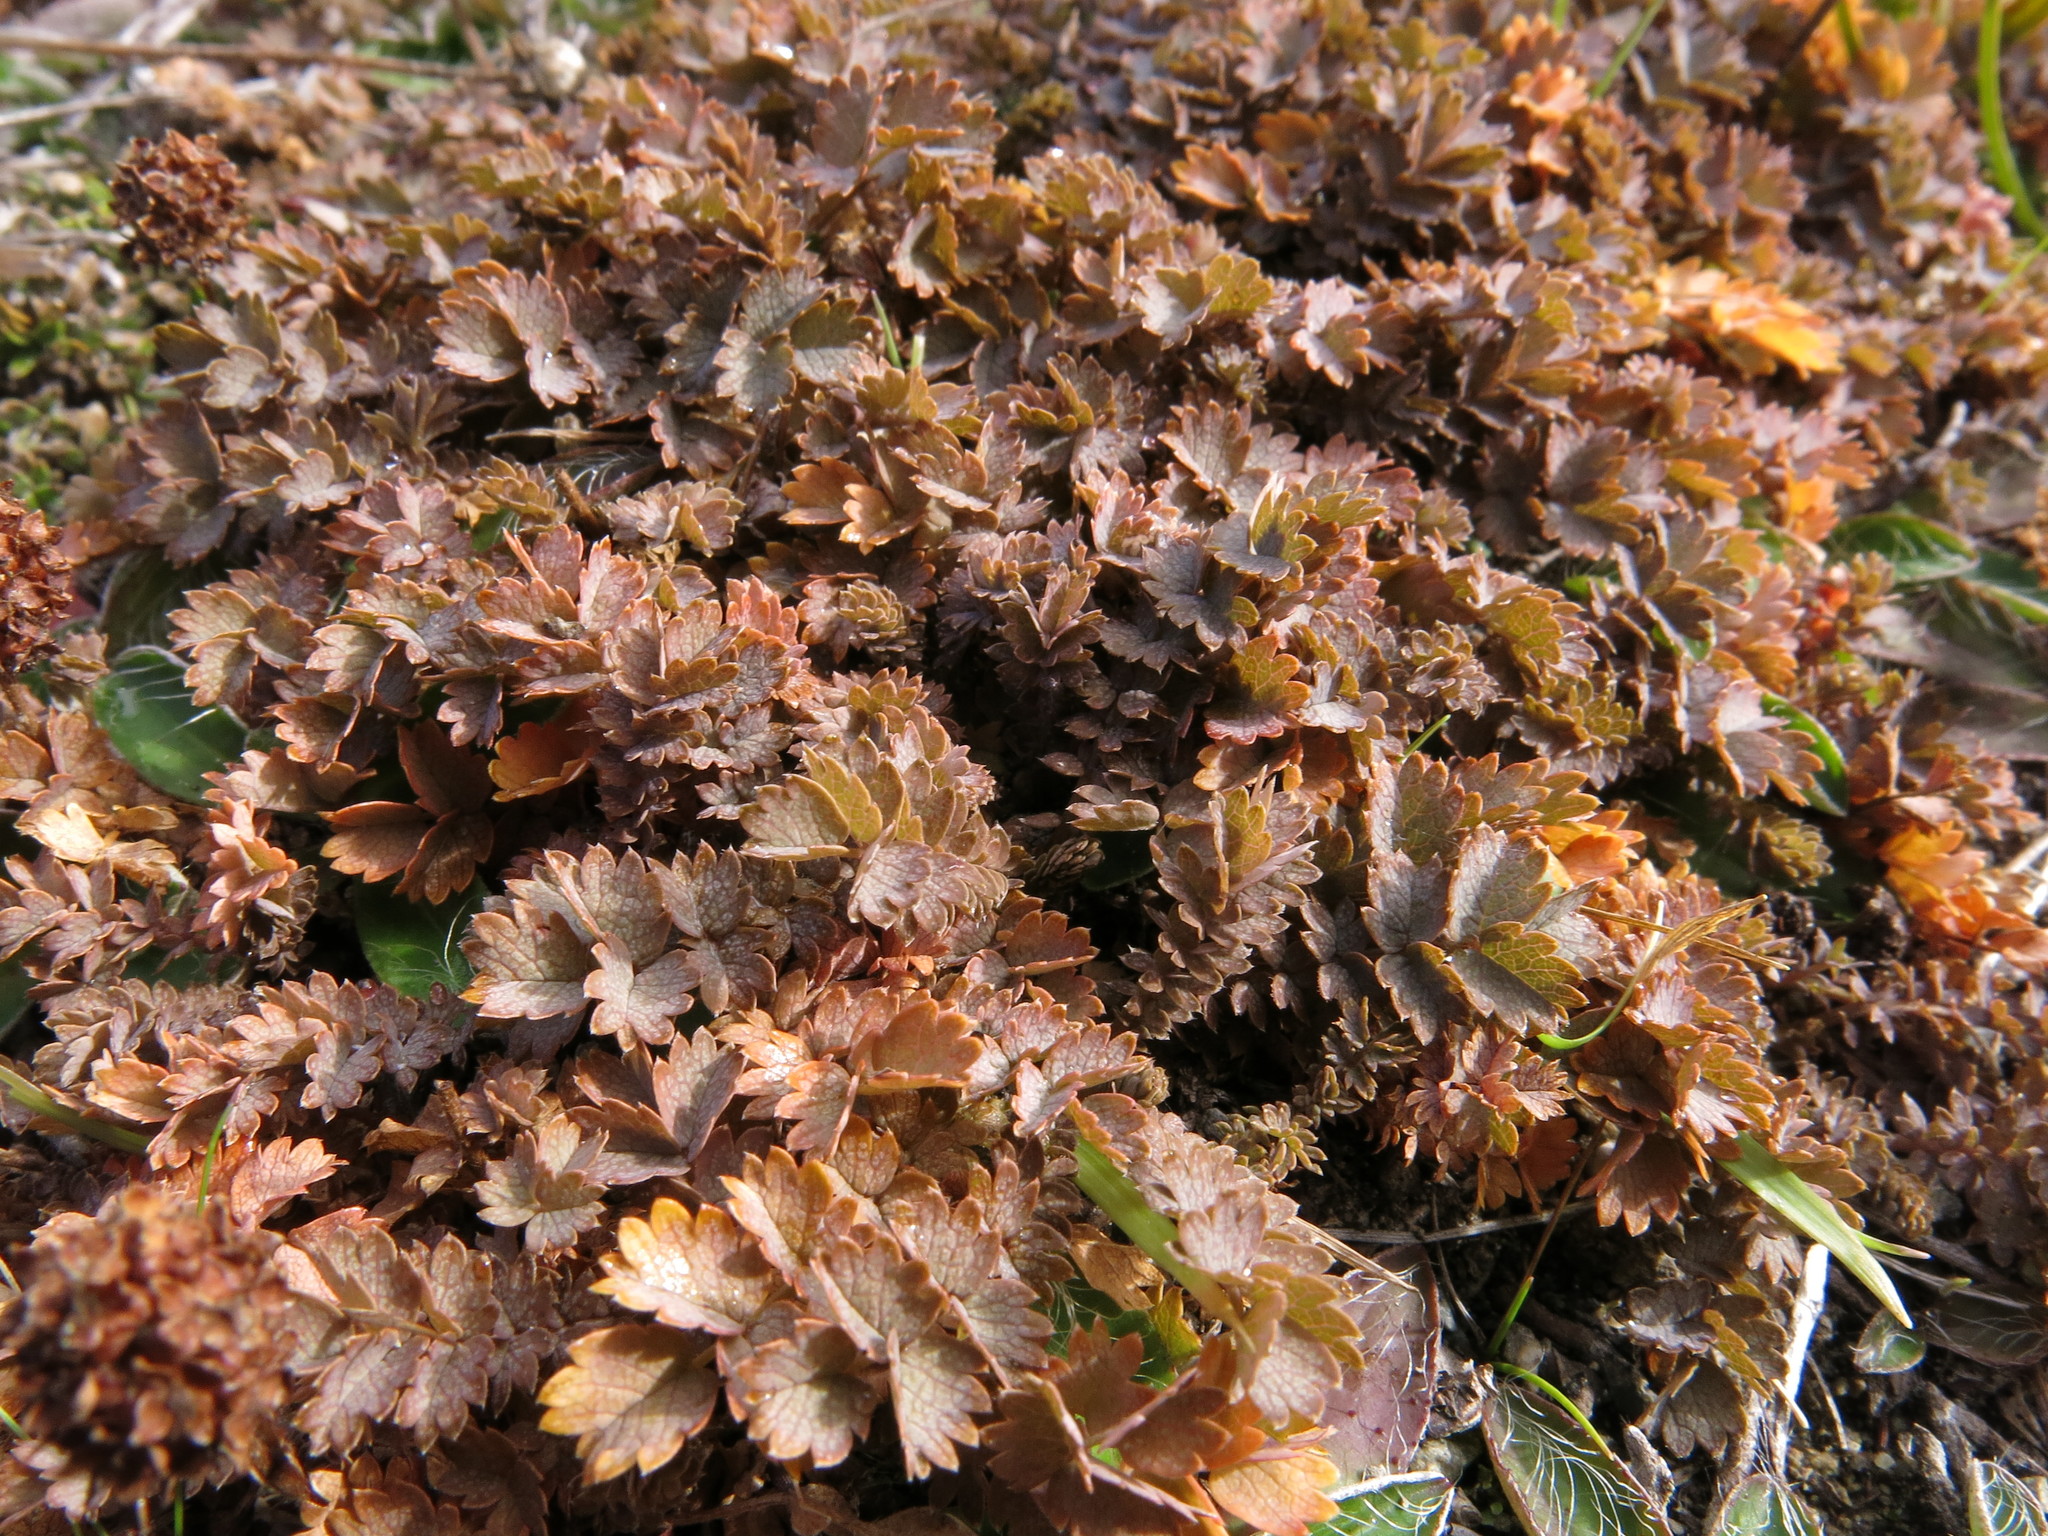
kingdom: Plantae
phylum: Tracheophyta
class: Magnoliopsida
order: Rosales
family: Rosaceae
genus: Acaena
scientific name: Acaena inermis
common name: Spineless acaena
